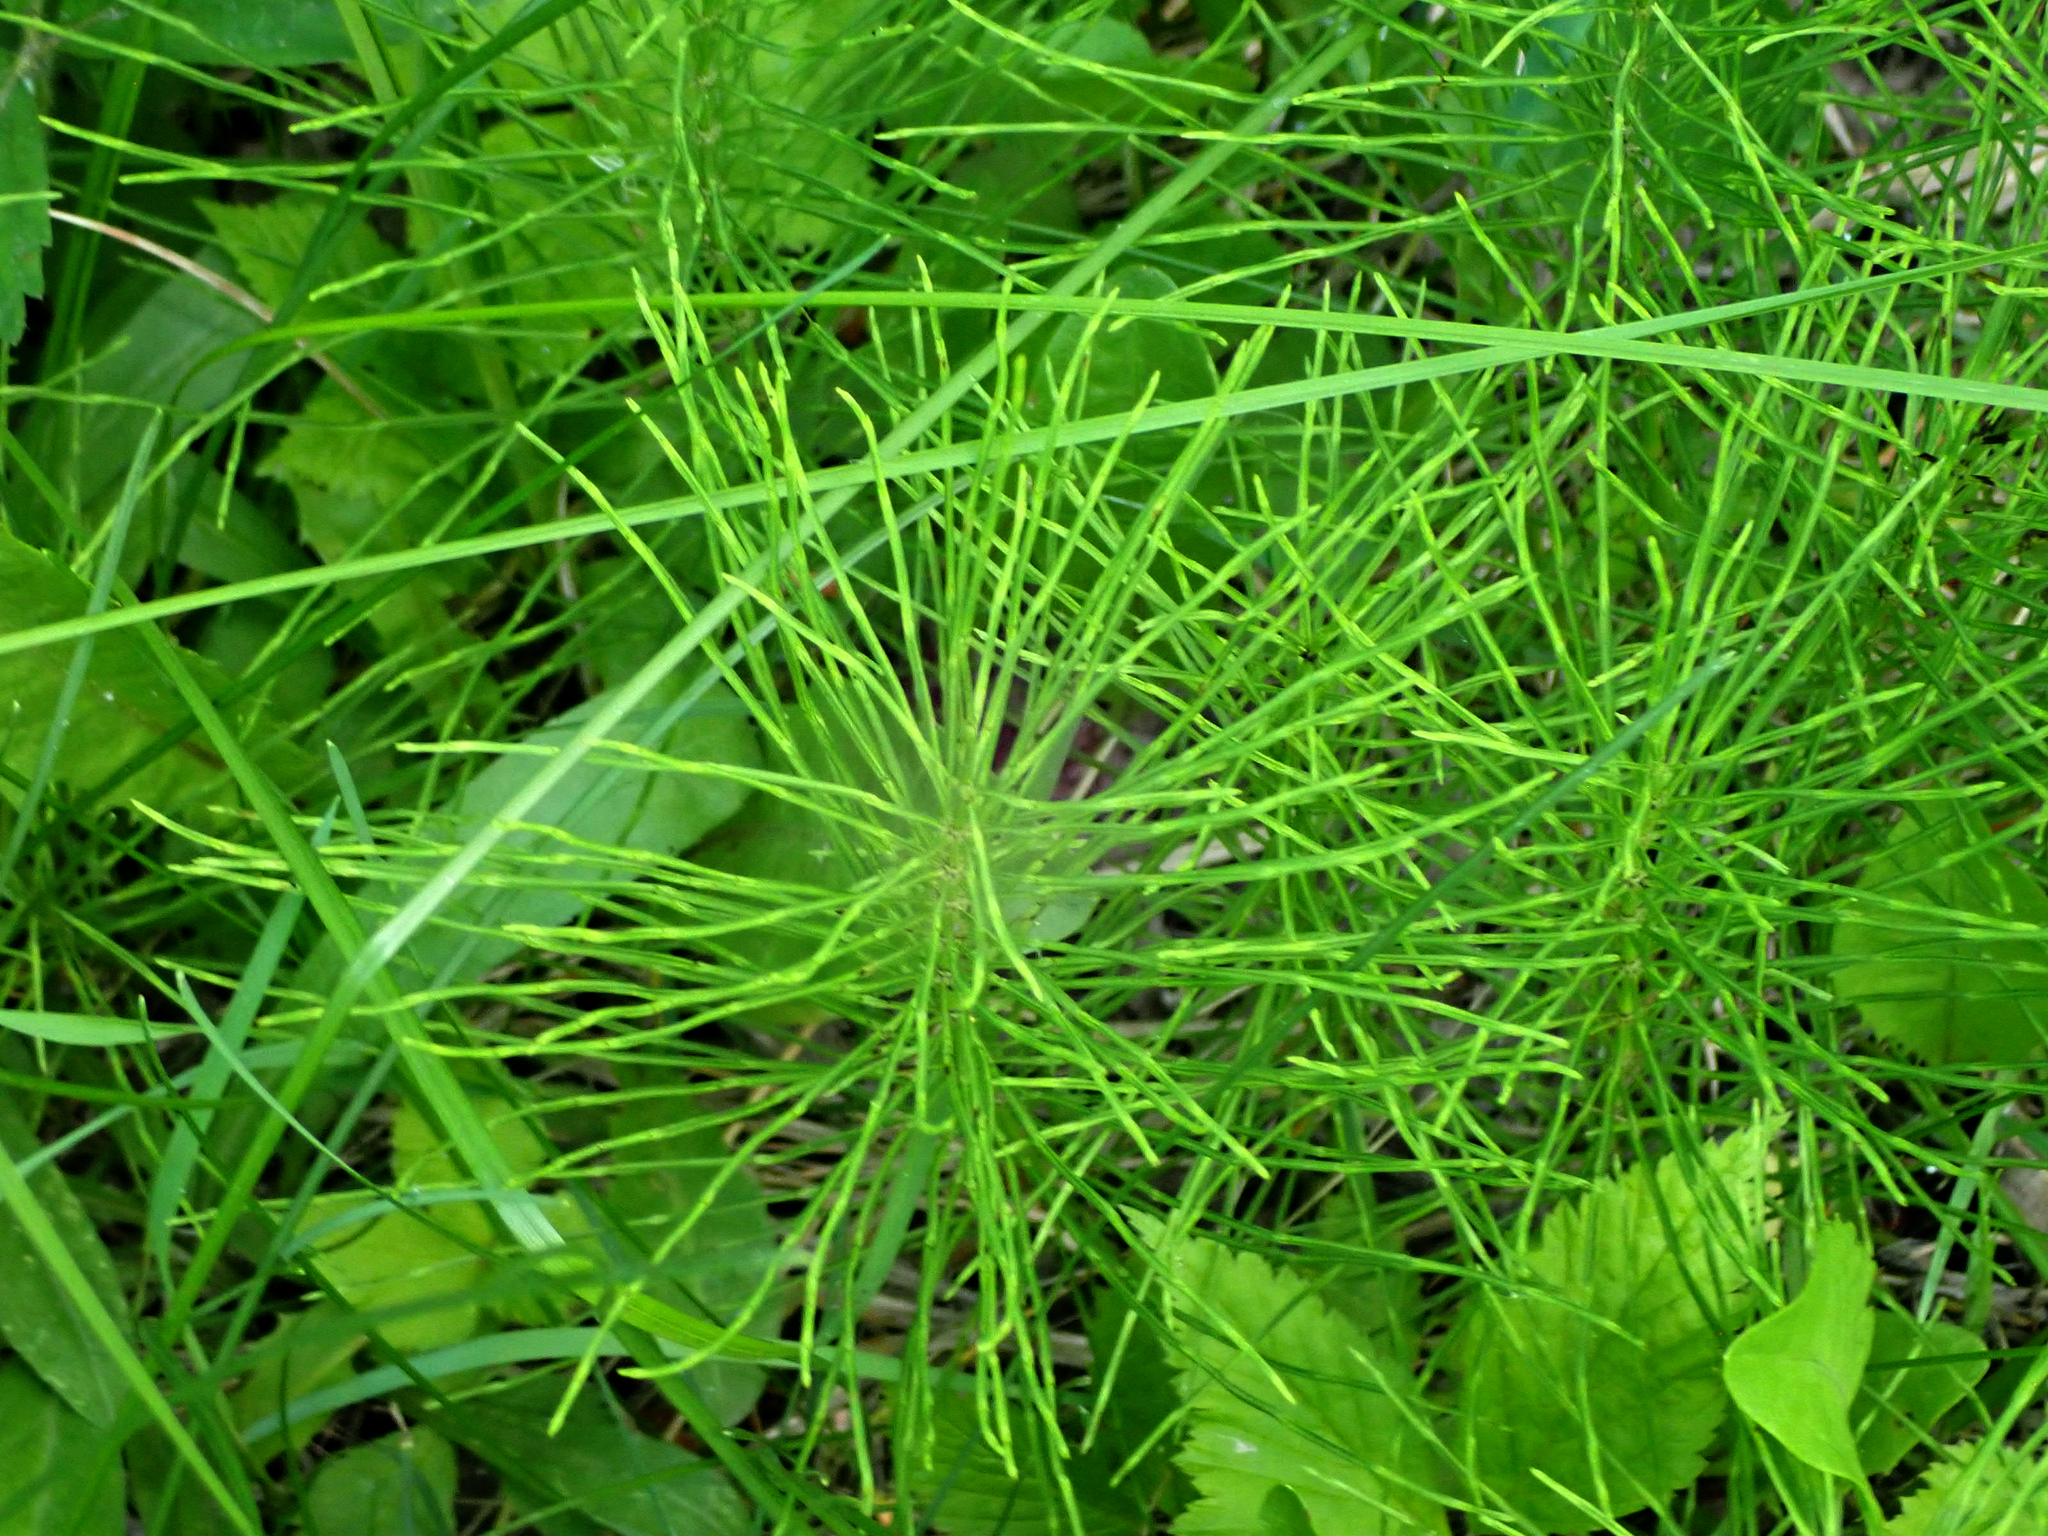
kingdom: Plantae
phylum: Tracheophyta
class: Polypodiopsida
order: Equisetales
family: Equisetaceae
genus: Equisetum
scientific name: Equisetum arvense
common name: Field horsetail
